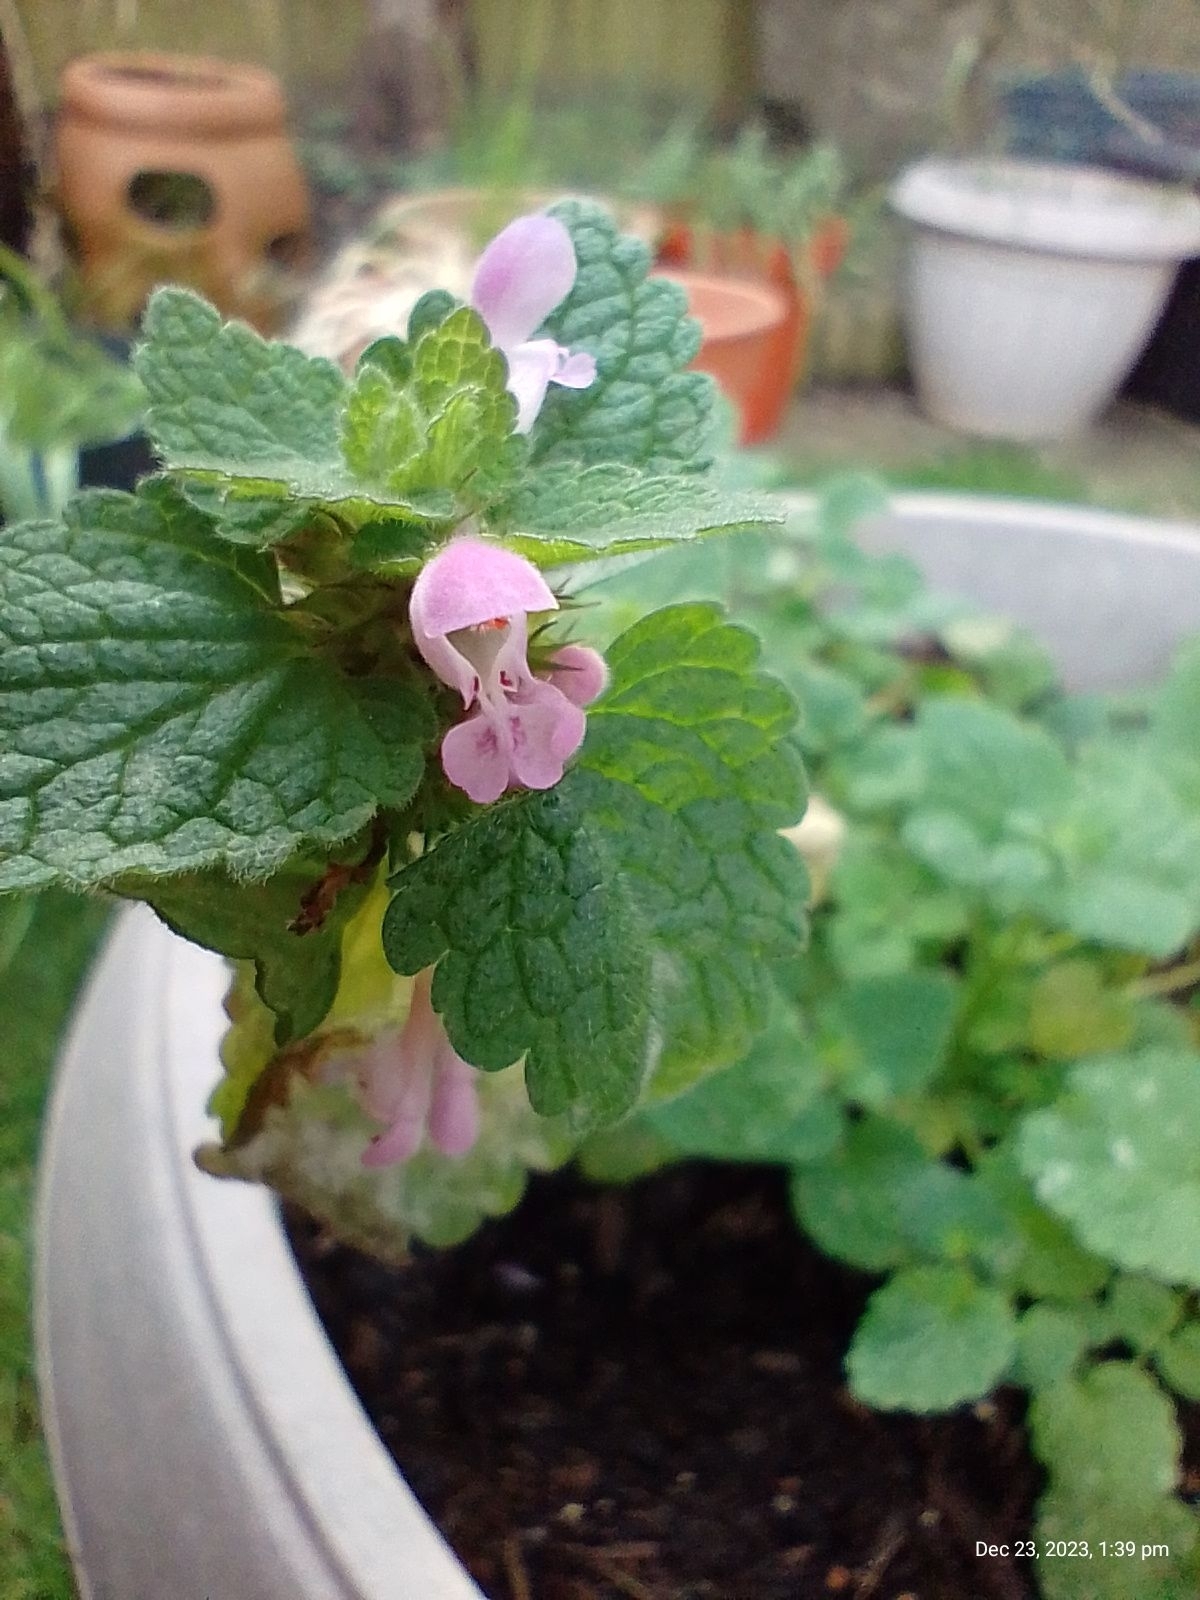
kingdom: Plantae
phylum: Tracheophyta
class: Magnoliopsida
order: Lamiales
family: Lamiaceae
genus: Lamium
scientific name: Lamium purpureum
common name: Red dead-nettle
